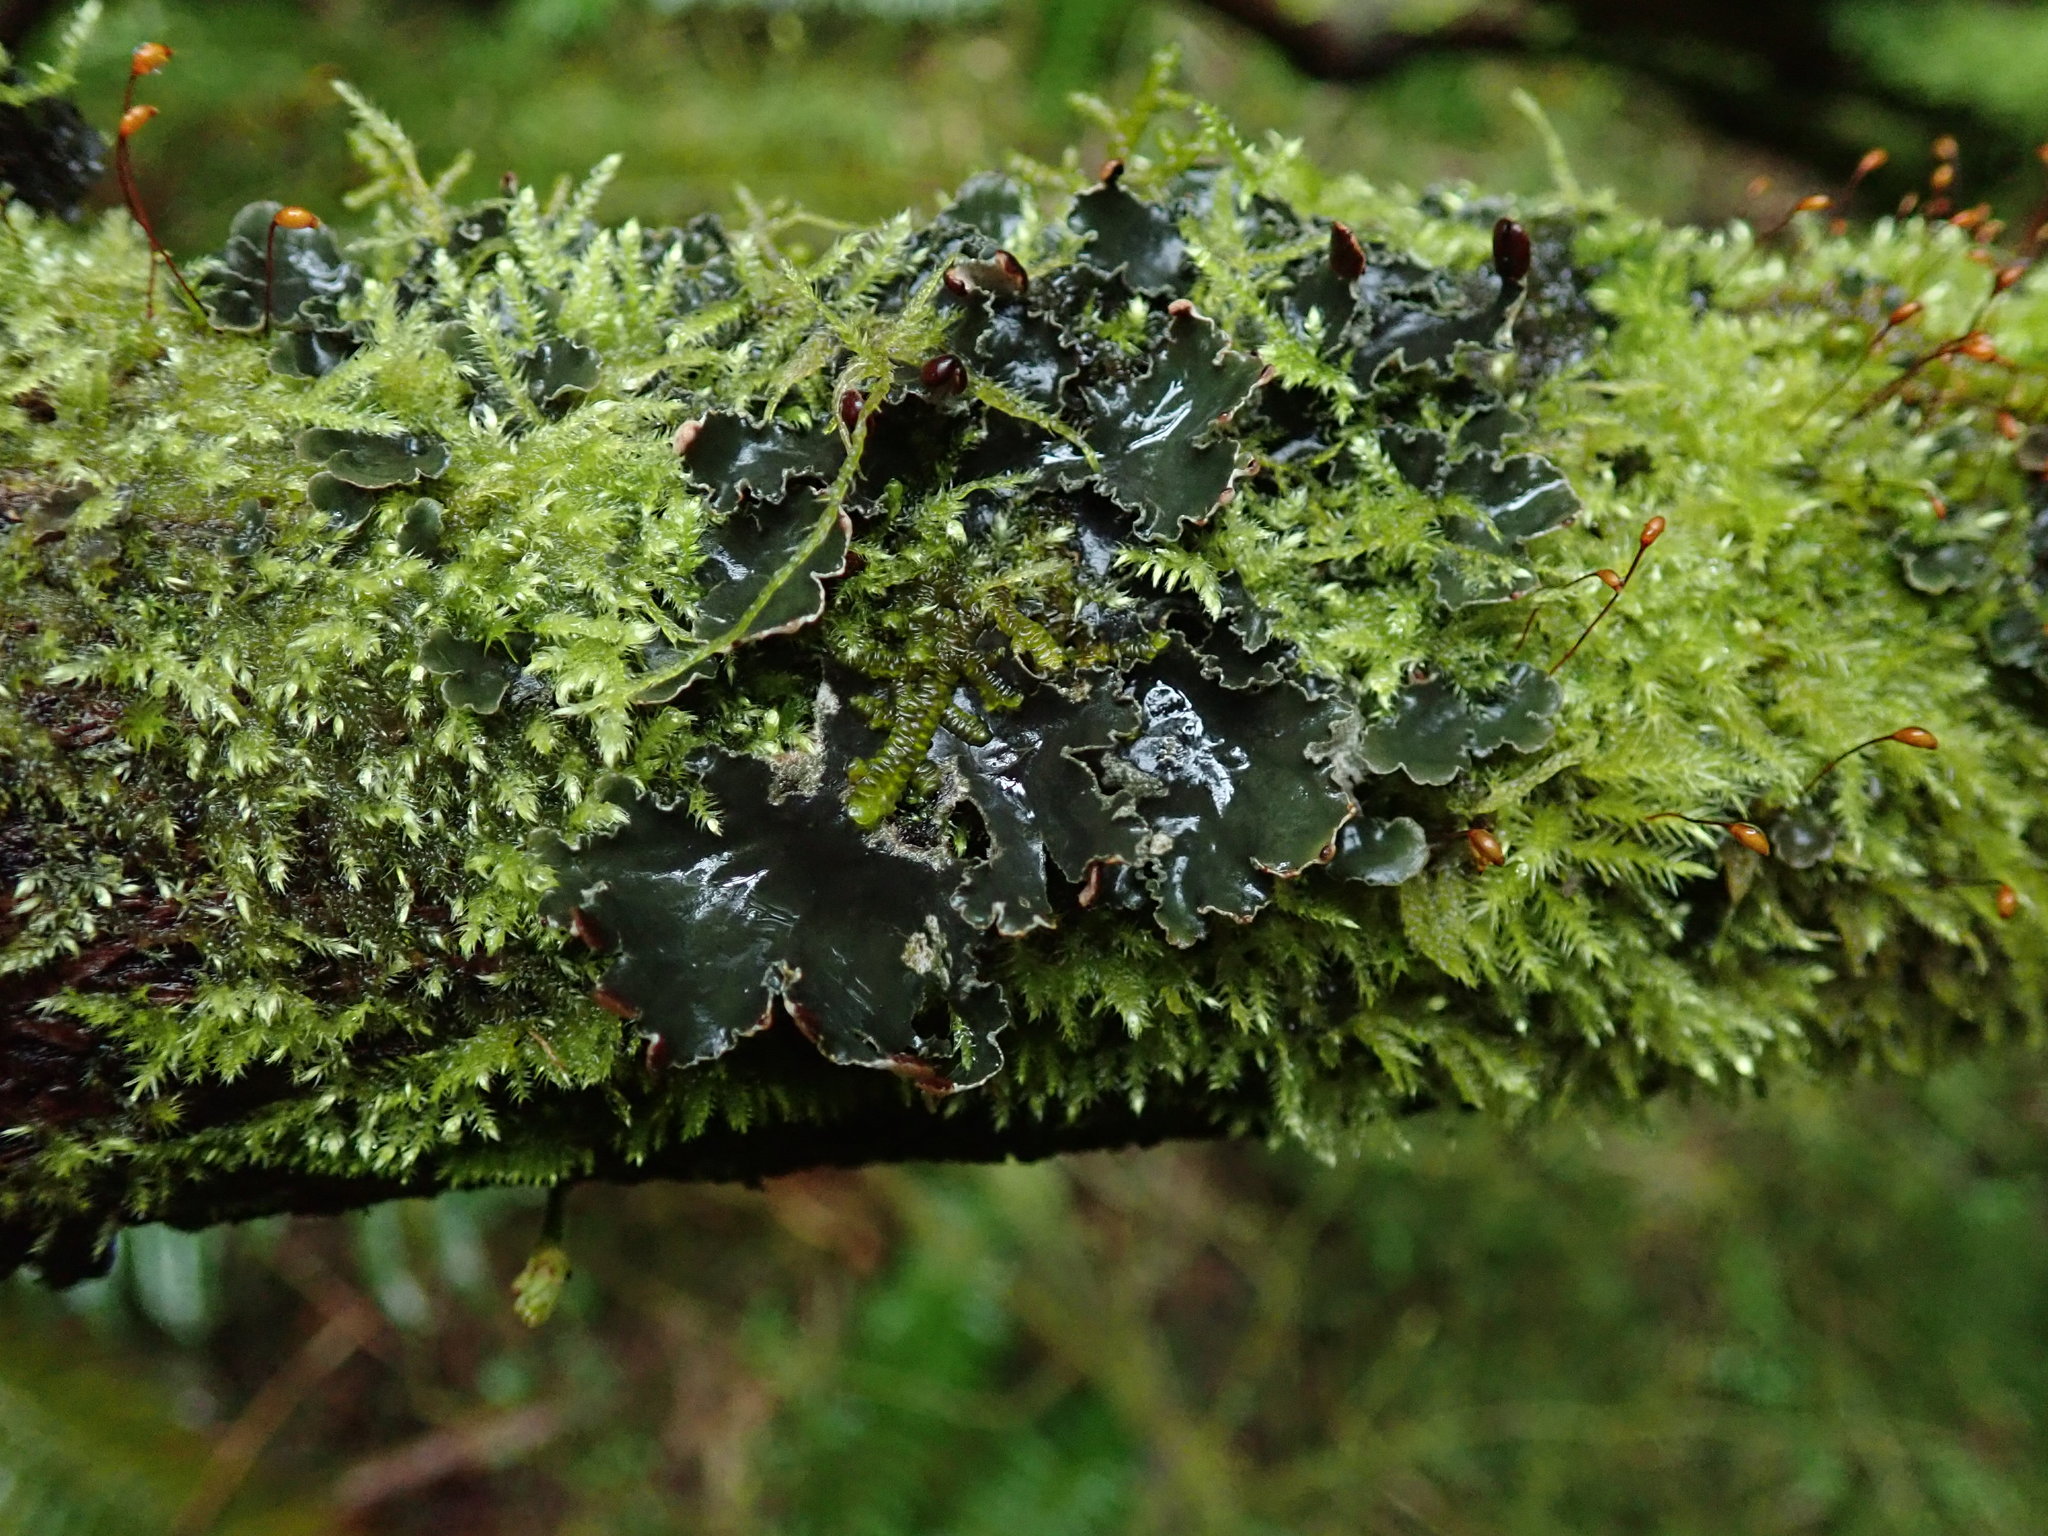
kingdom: Fungi
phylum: Ascomycota
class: Lecanoromycetes
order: Peltigerales
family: Peltigeraceae
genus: Peltigera
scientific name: Peltigera neckeri
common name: Blacksaddle pelt lichen
